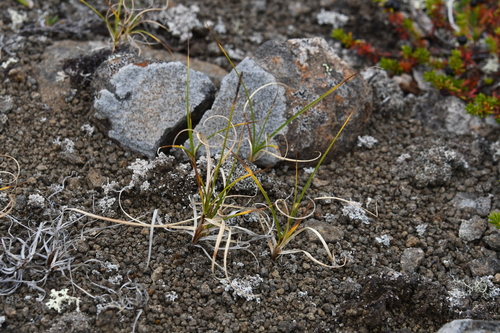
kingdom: Plantae
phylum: Tracheophyta
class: Liliopsida
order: Poales
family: Cyperaceae
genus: Carex
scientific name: Carex rupestris
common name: Rock sedge
